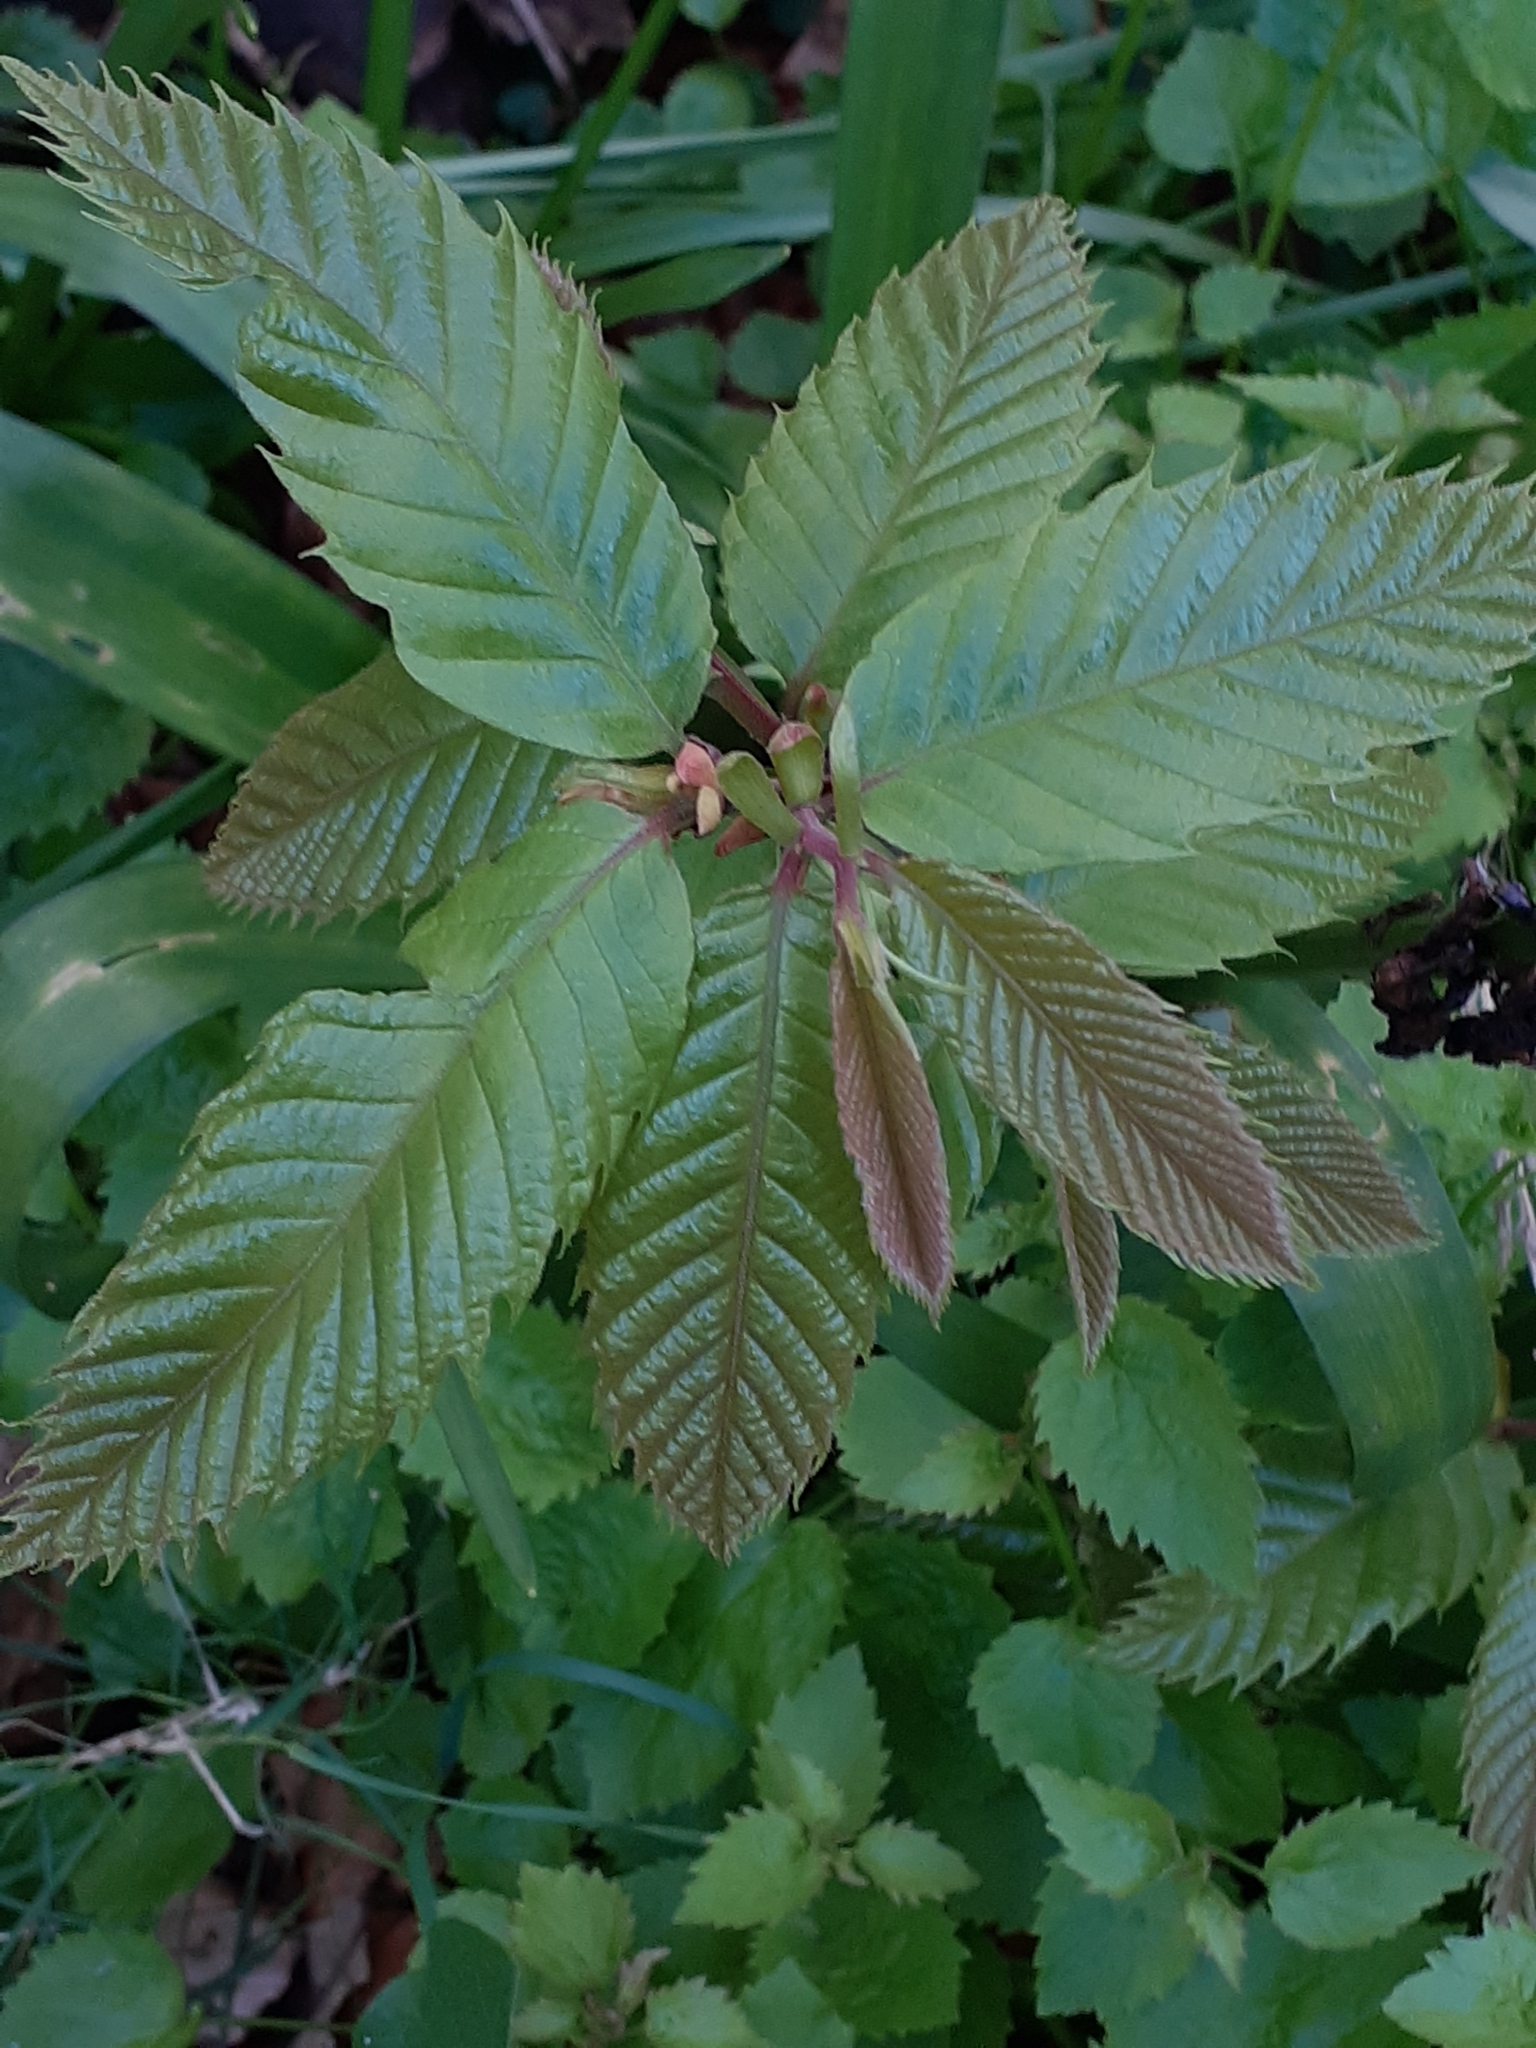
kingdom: Plantae
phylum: Tracheophyta
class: Magnoliopsida
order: Fagales
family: Fagaceae
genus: Castanea
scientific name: Castanea sativa
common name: Sweet chestnut
